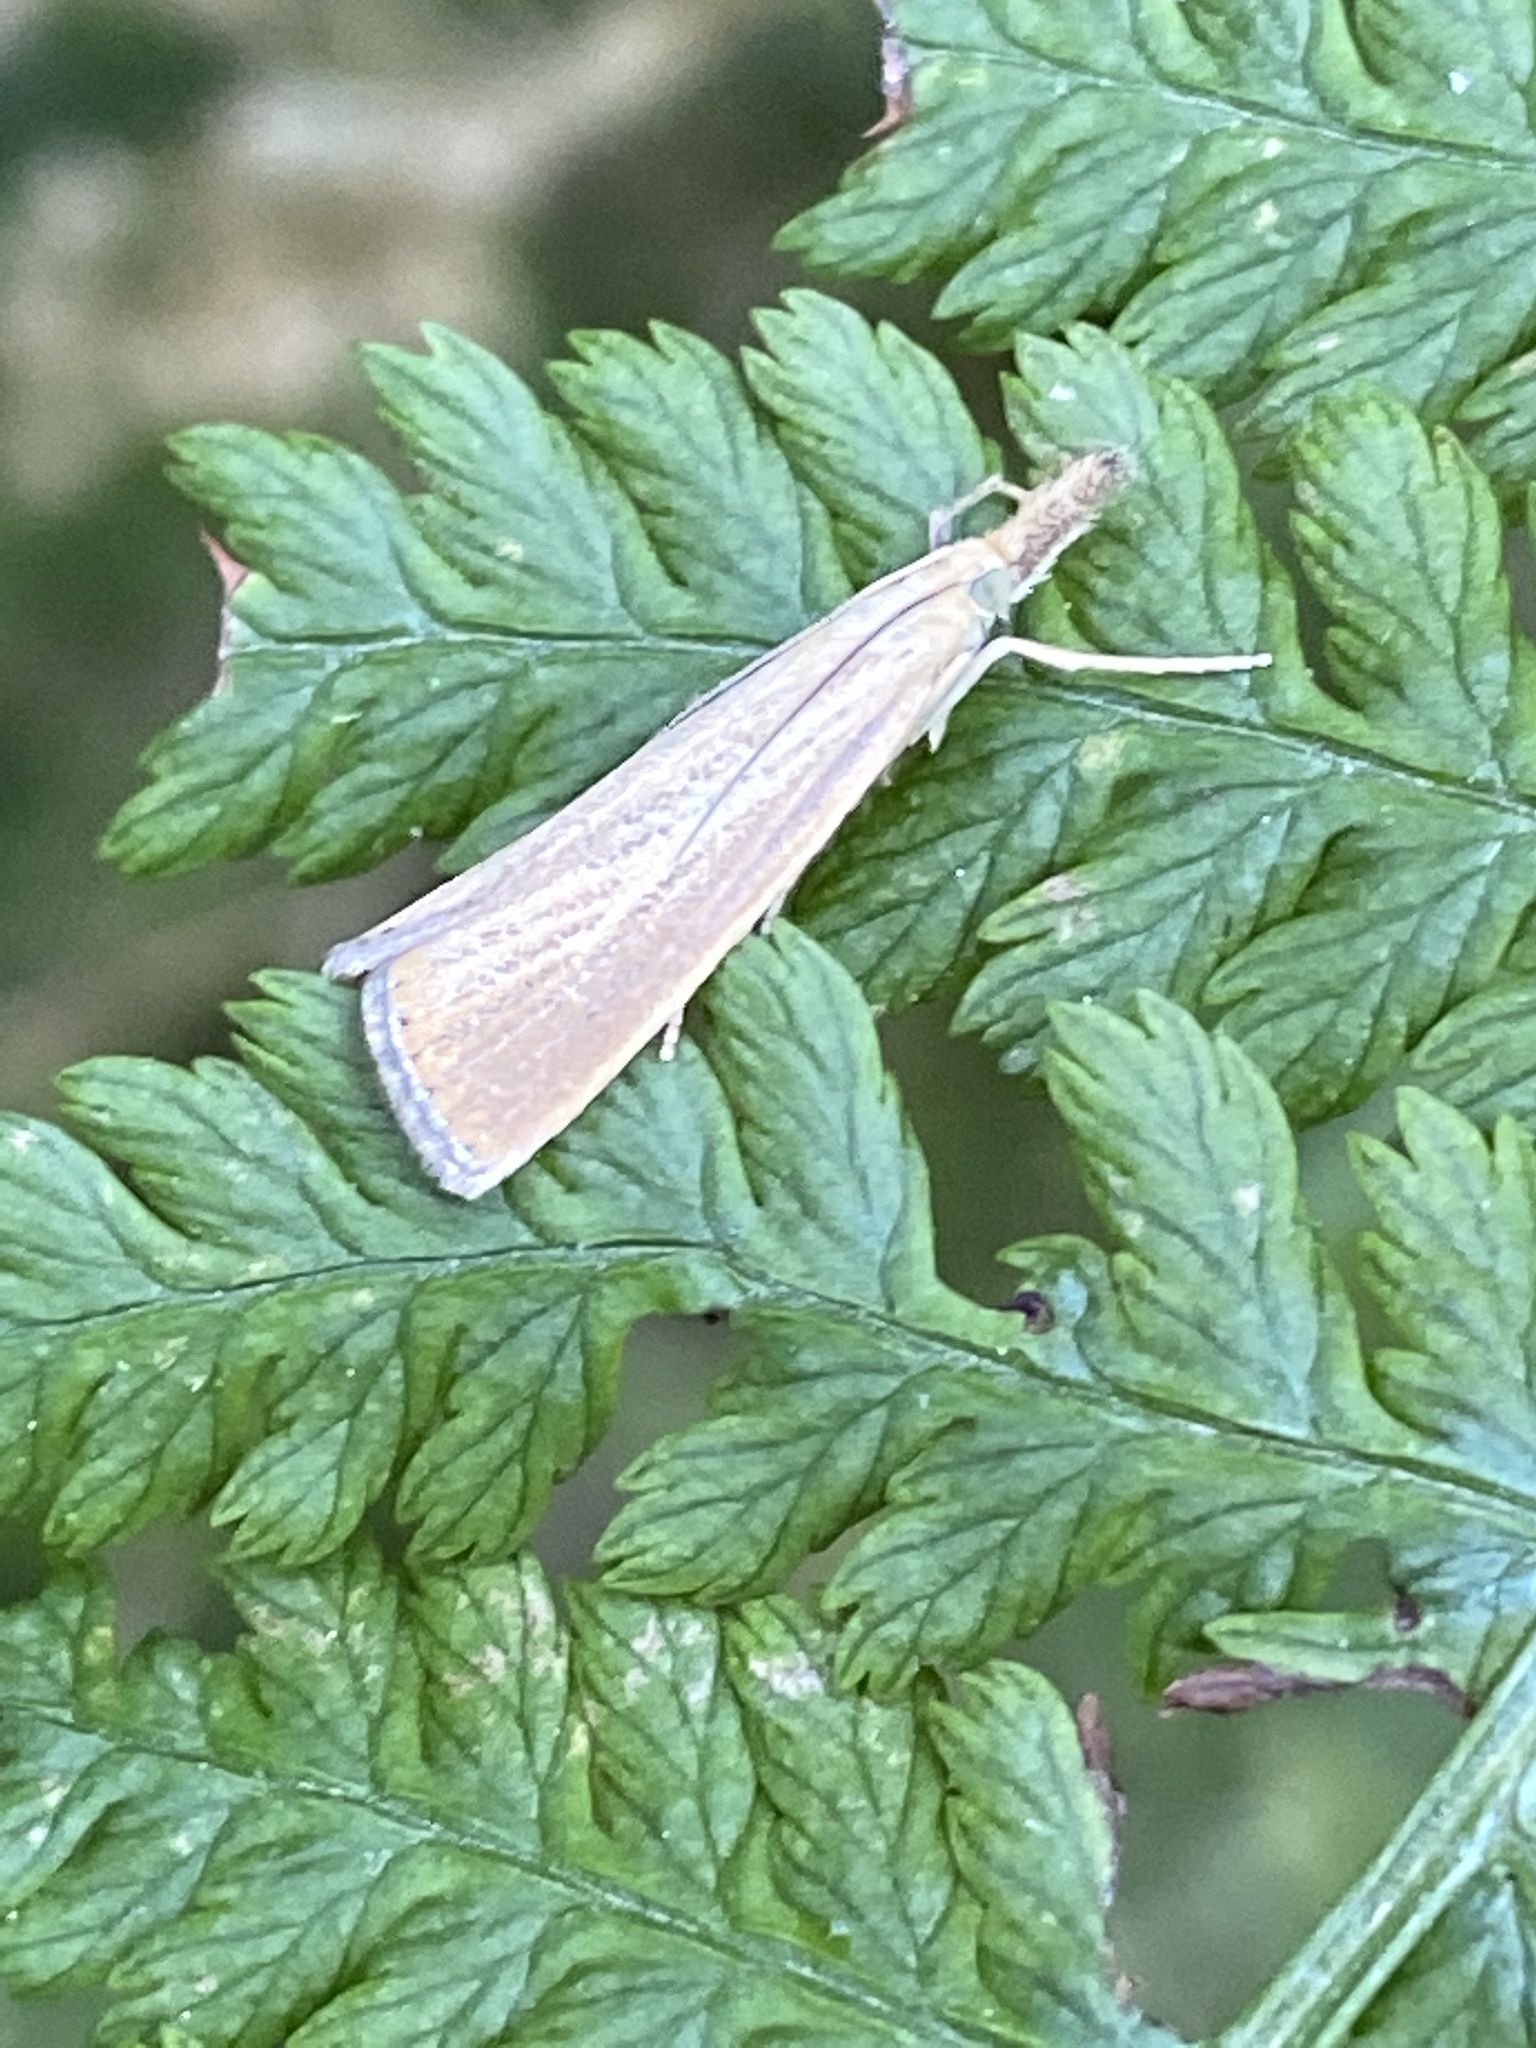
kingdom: Animalia
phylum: Arthropoda
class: Insecta
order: Lepidoptera
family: Crambidae
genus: Agriphila
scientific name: Agriphila straminella
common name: Straw grass-veneer
